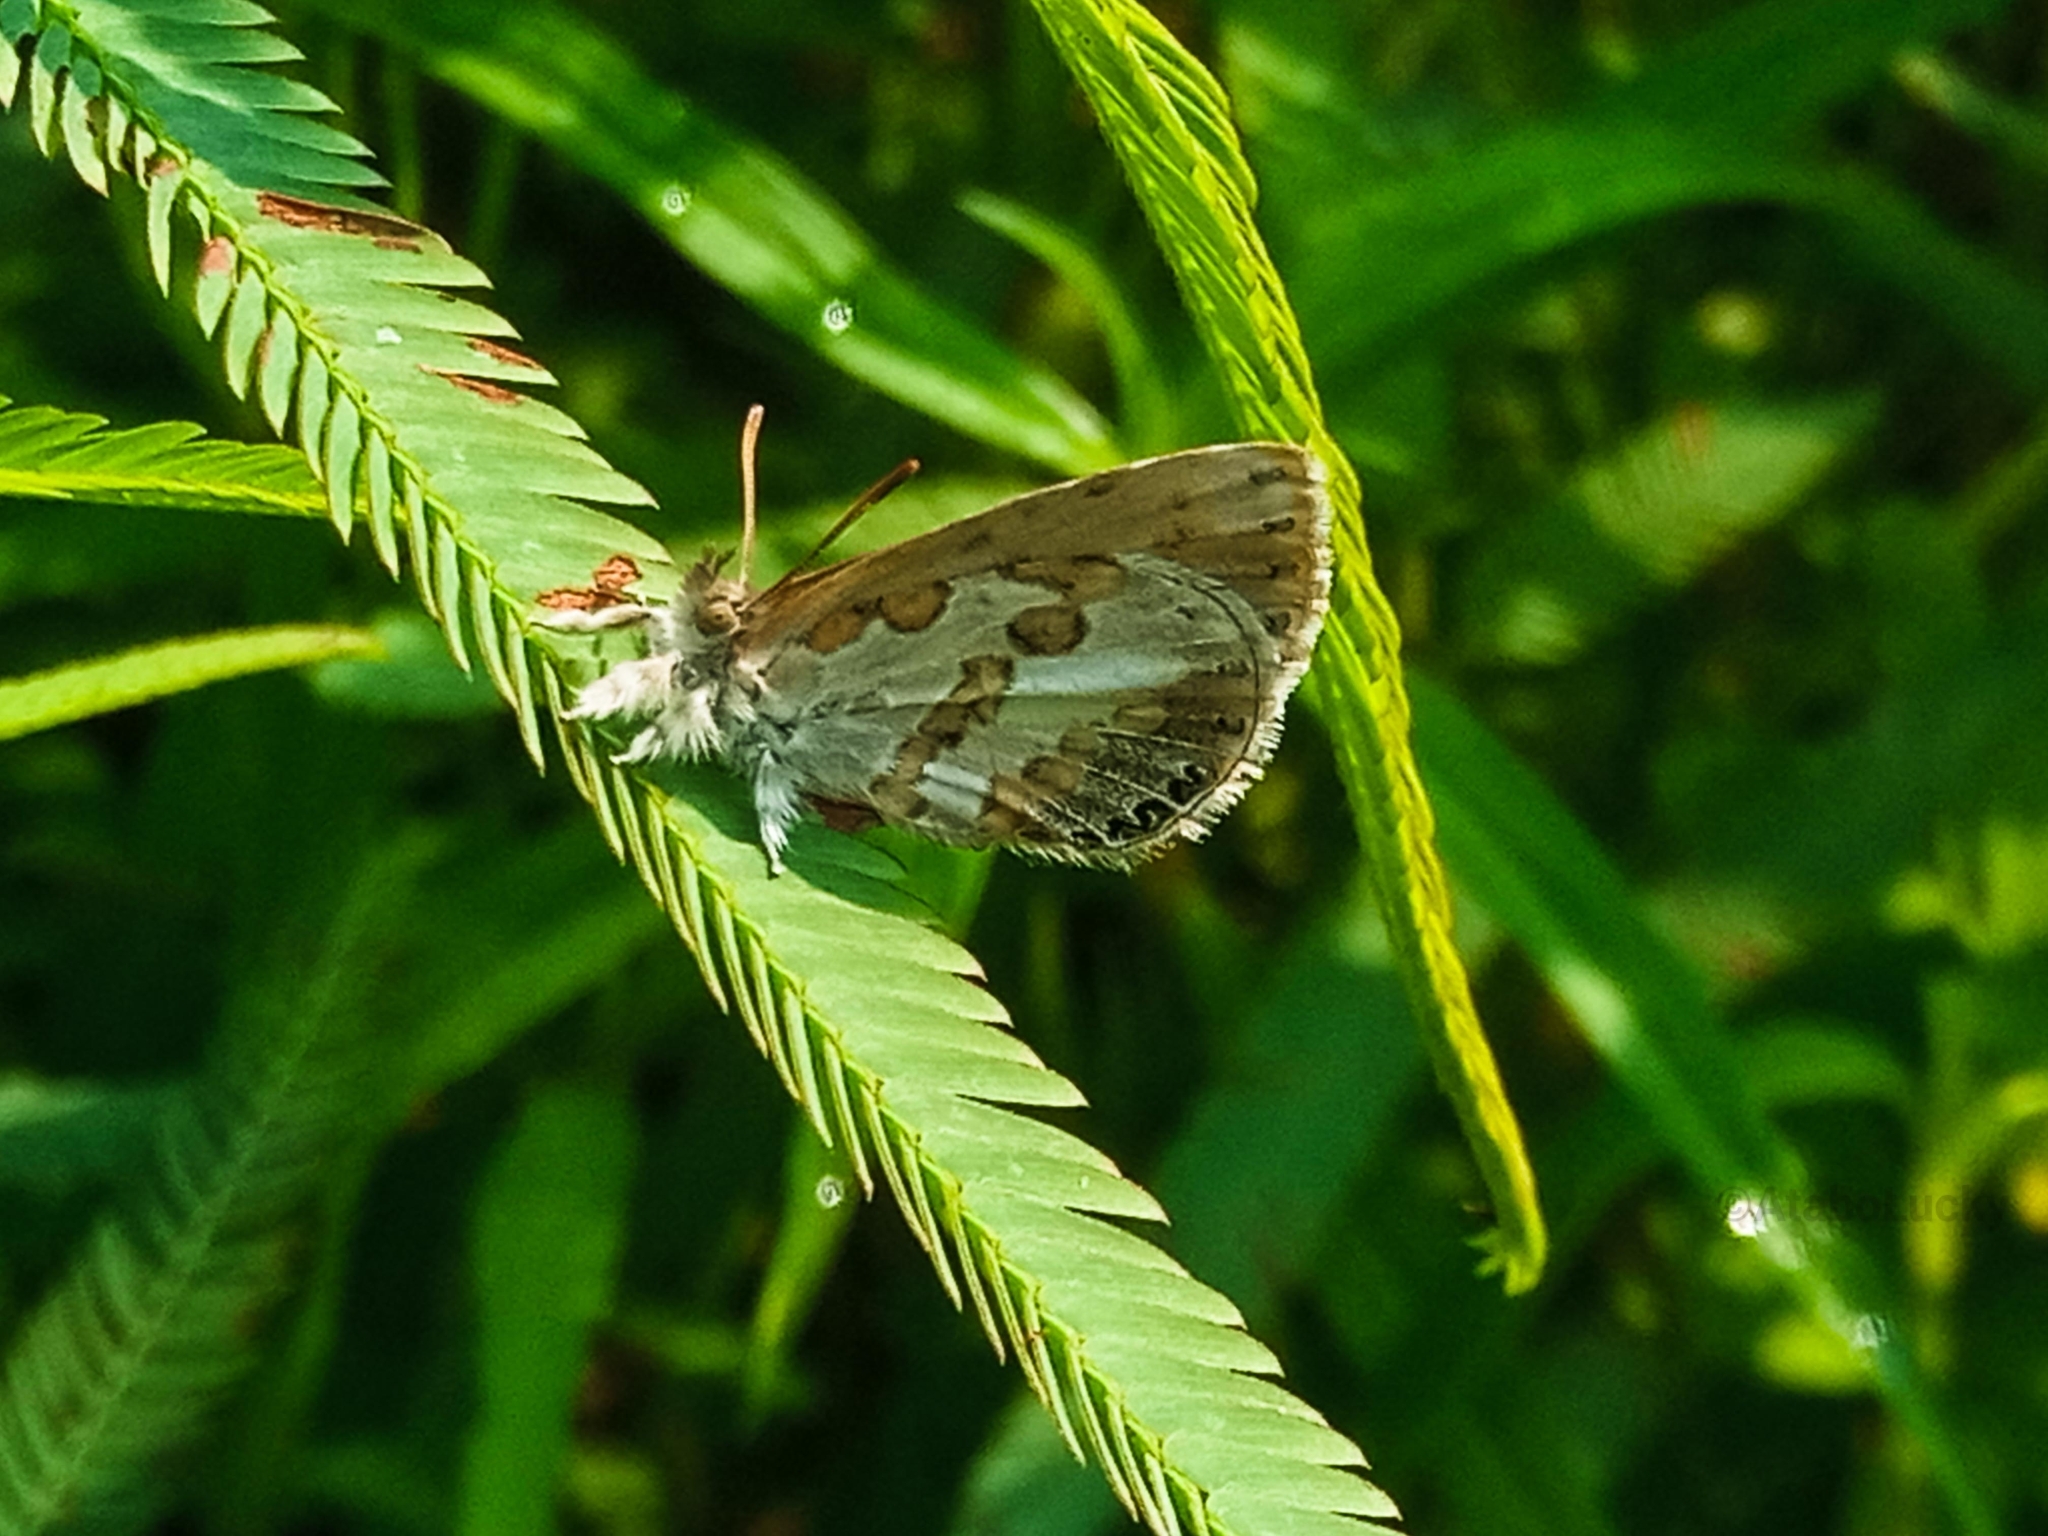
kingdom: Animalia
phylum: Arthropoda
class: Insecta
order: Lepidoptera
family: Lycaenidae
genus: Lachnocnema
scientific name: Lachnocnema
